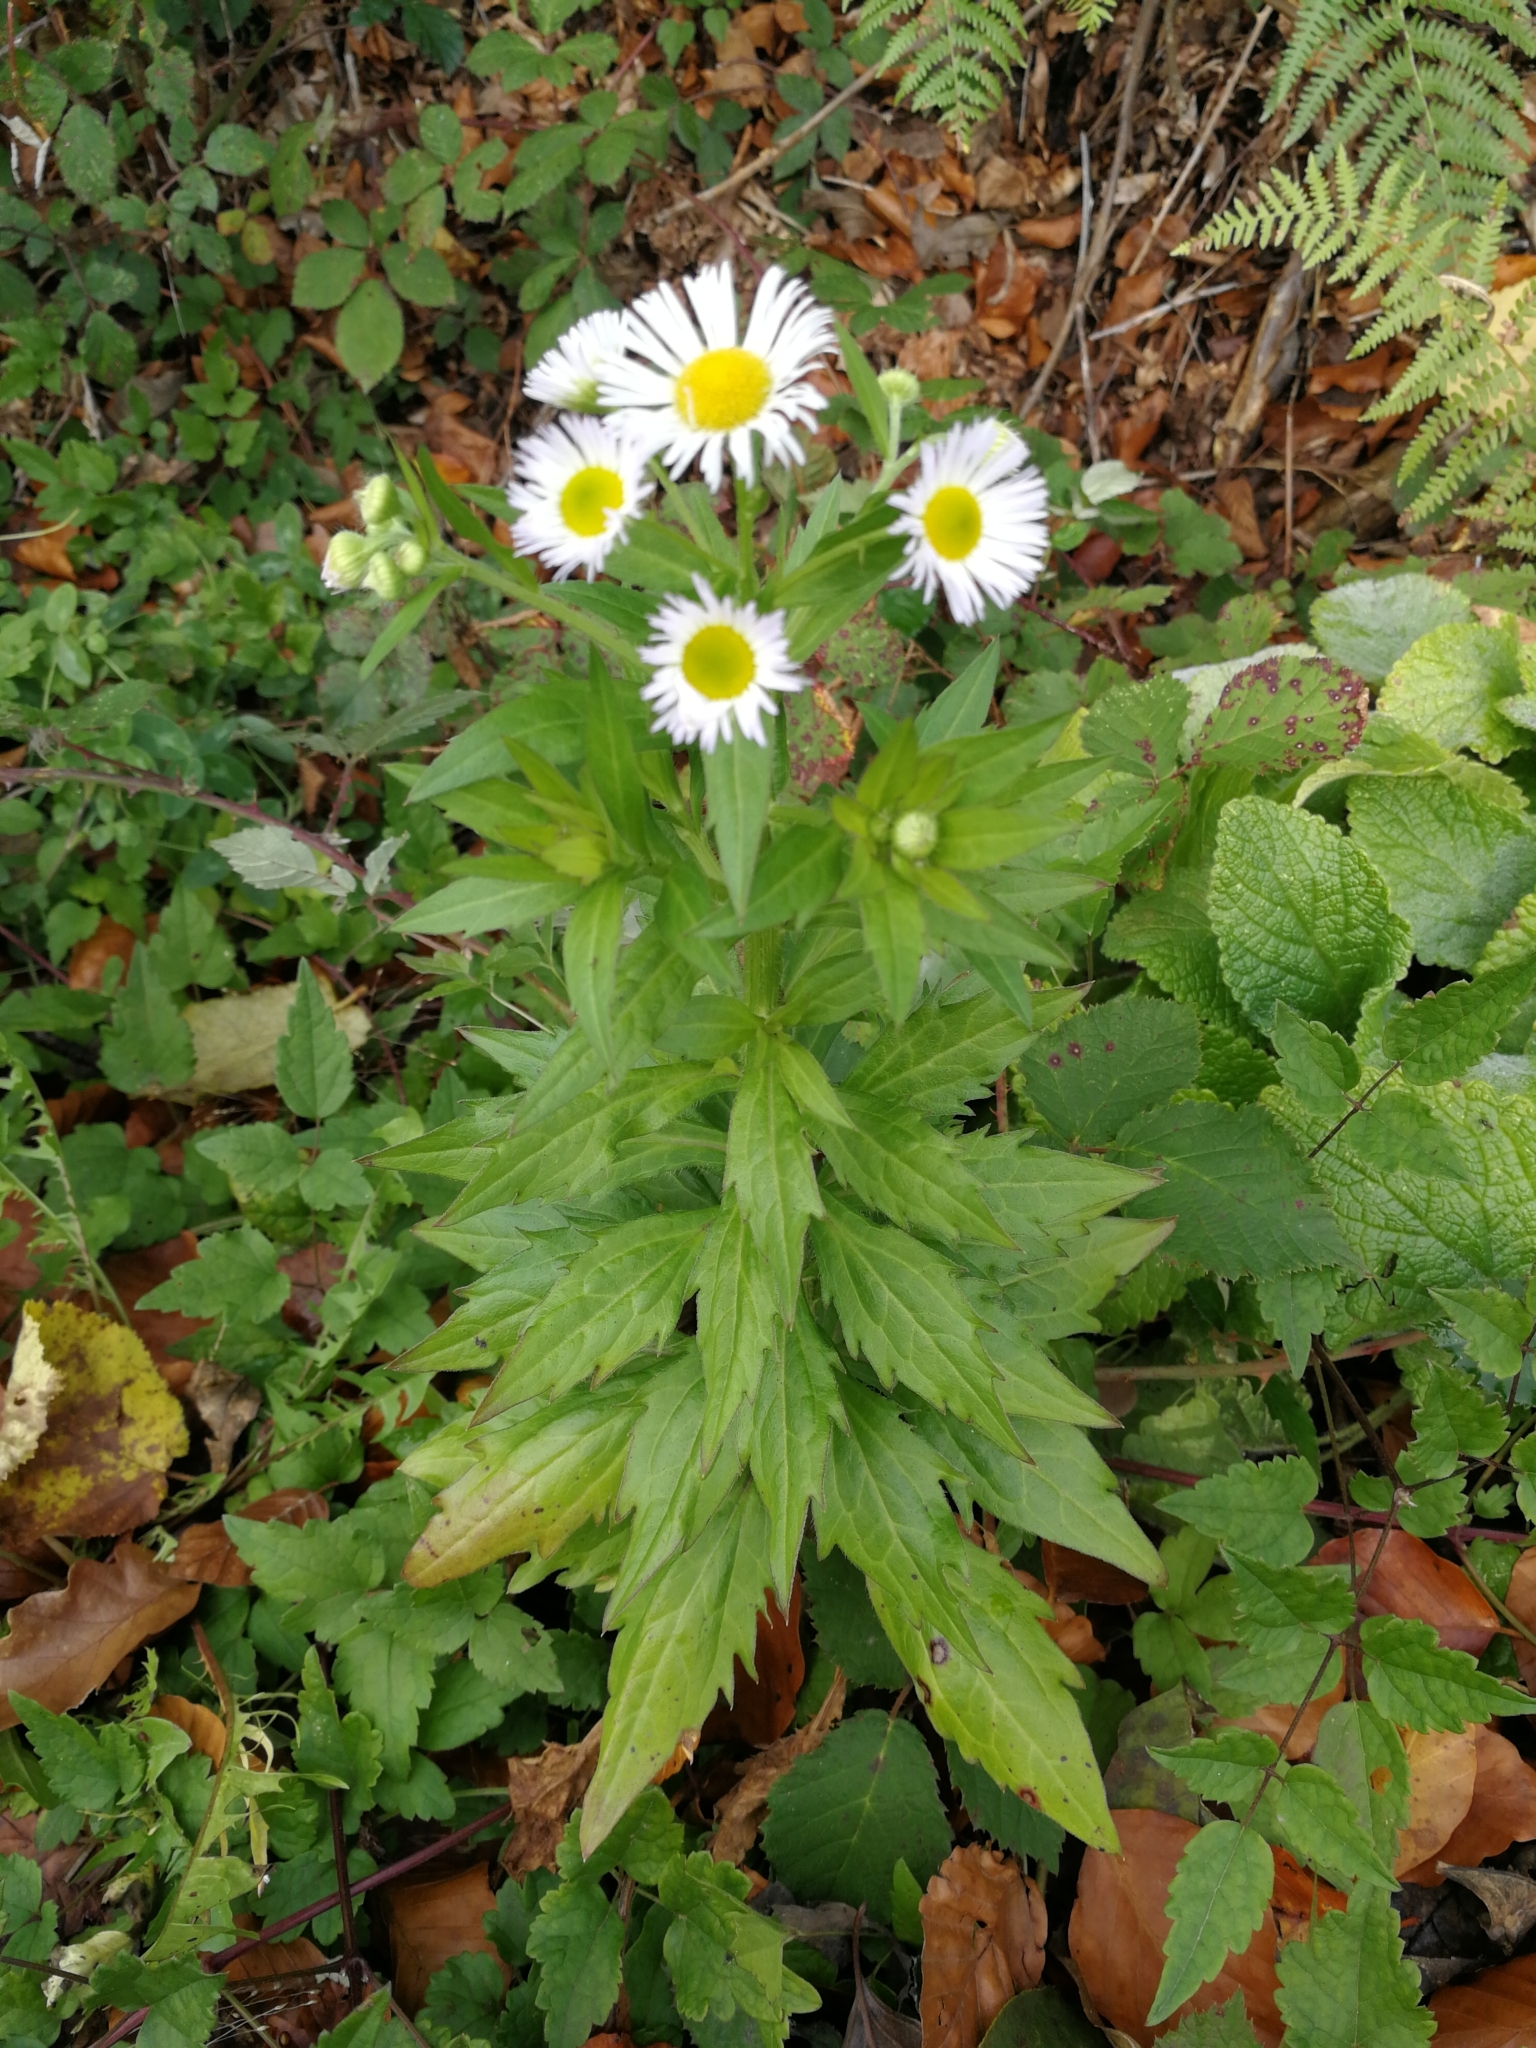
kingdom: Plantae
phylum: Tracheophyta
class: Magnoliopsida
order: Asterales
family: Asteraceae
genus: Erigeron
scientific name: Erigeron annuus
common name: Tall fleabane
